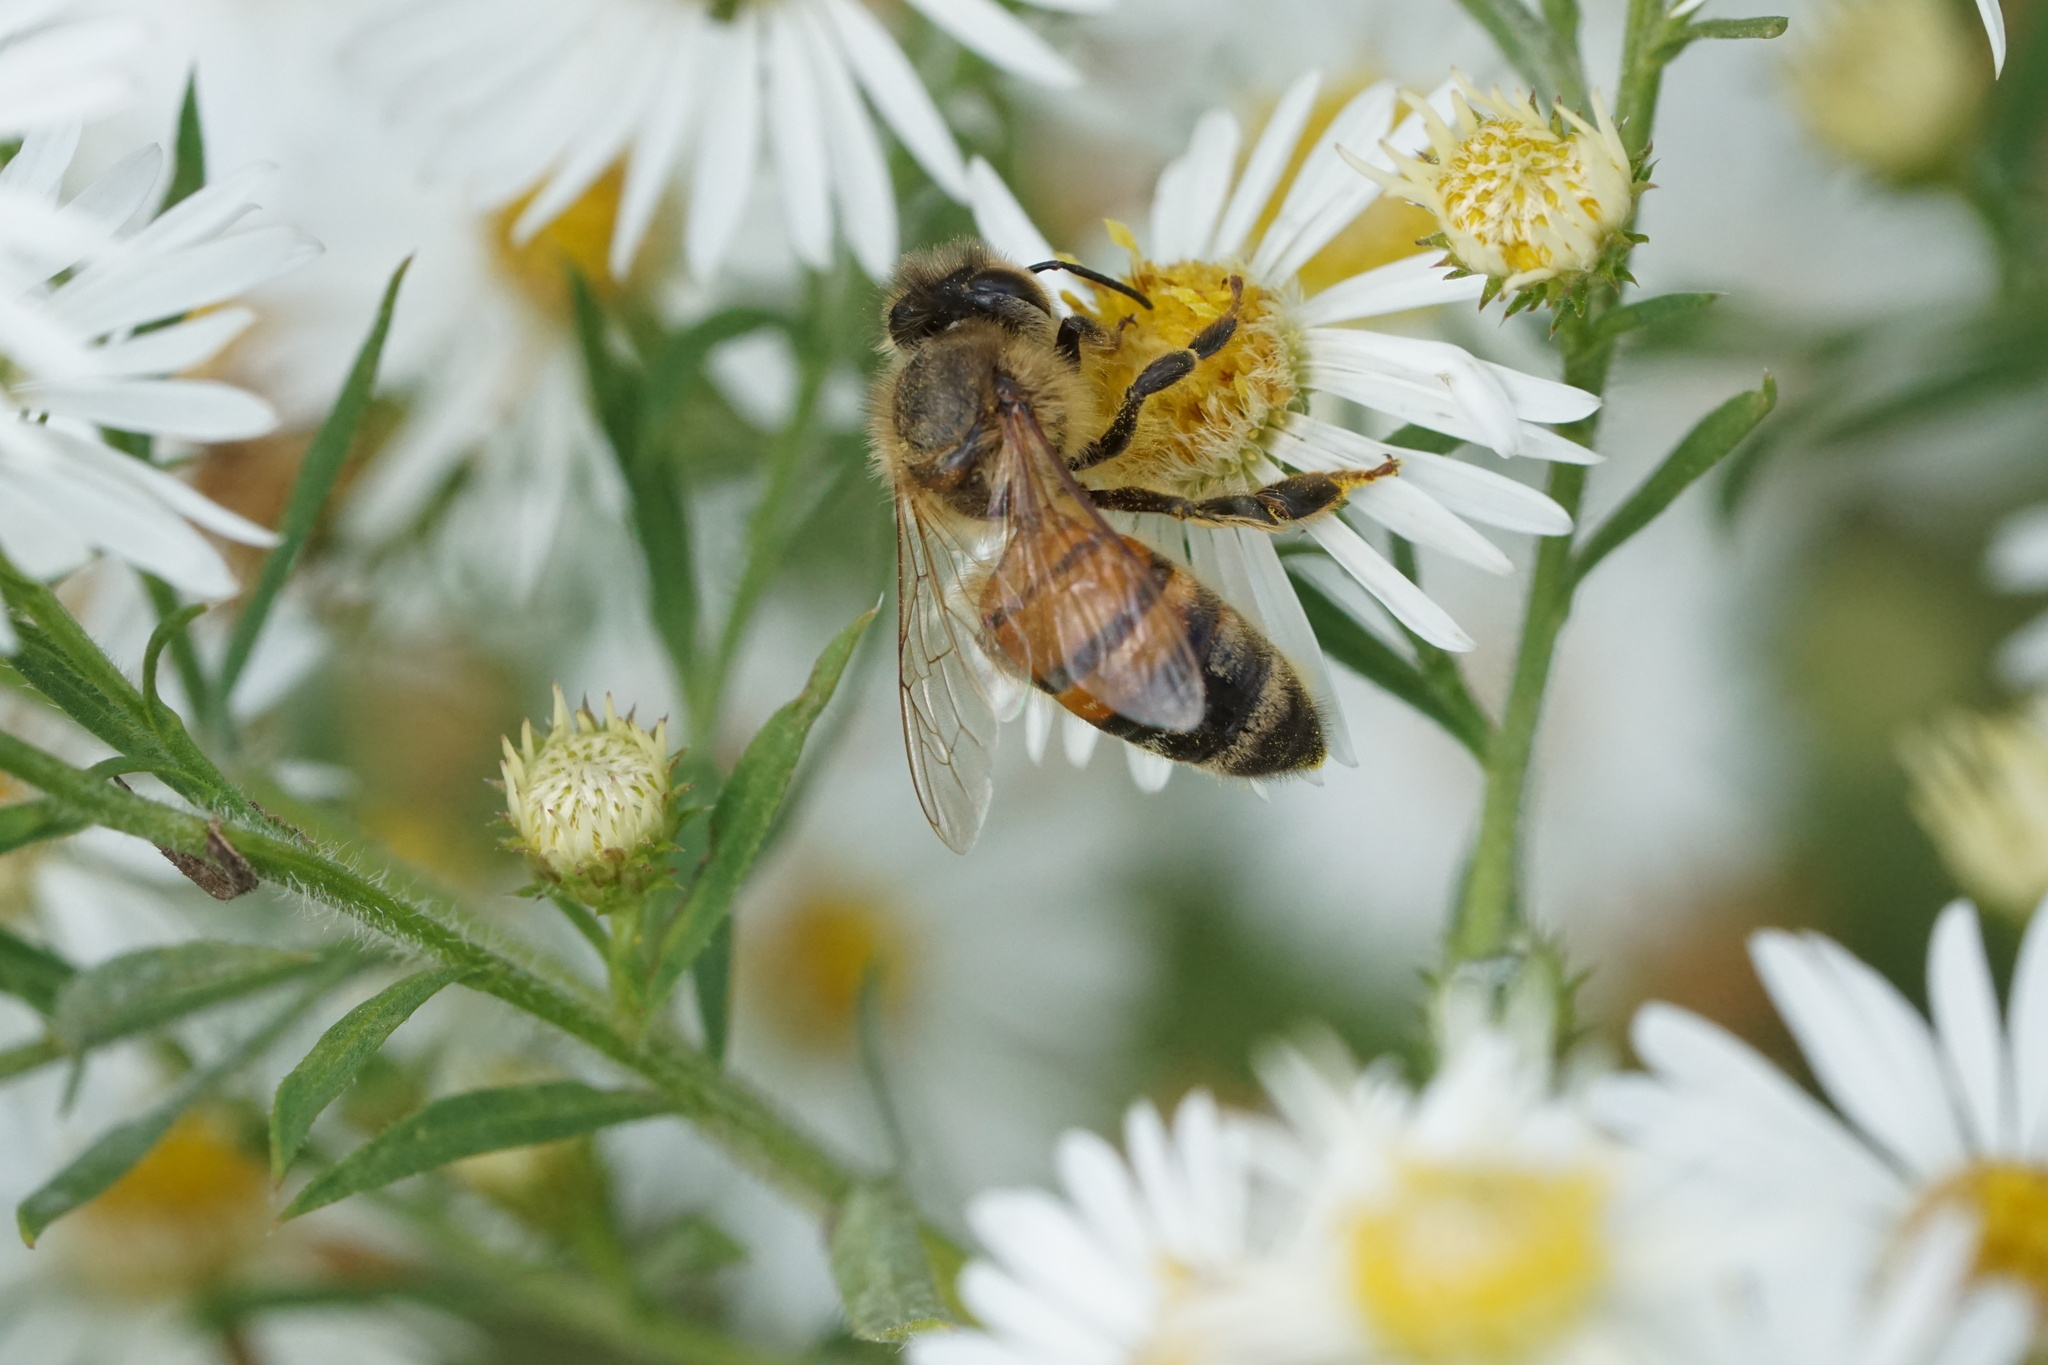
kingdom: Animalia
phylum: Arthropoda
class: Insecta
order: Hymenoptera
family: Apidae
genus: Apis
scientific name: Apis mellifera
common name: Honey bee
